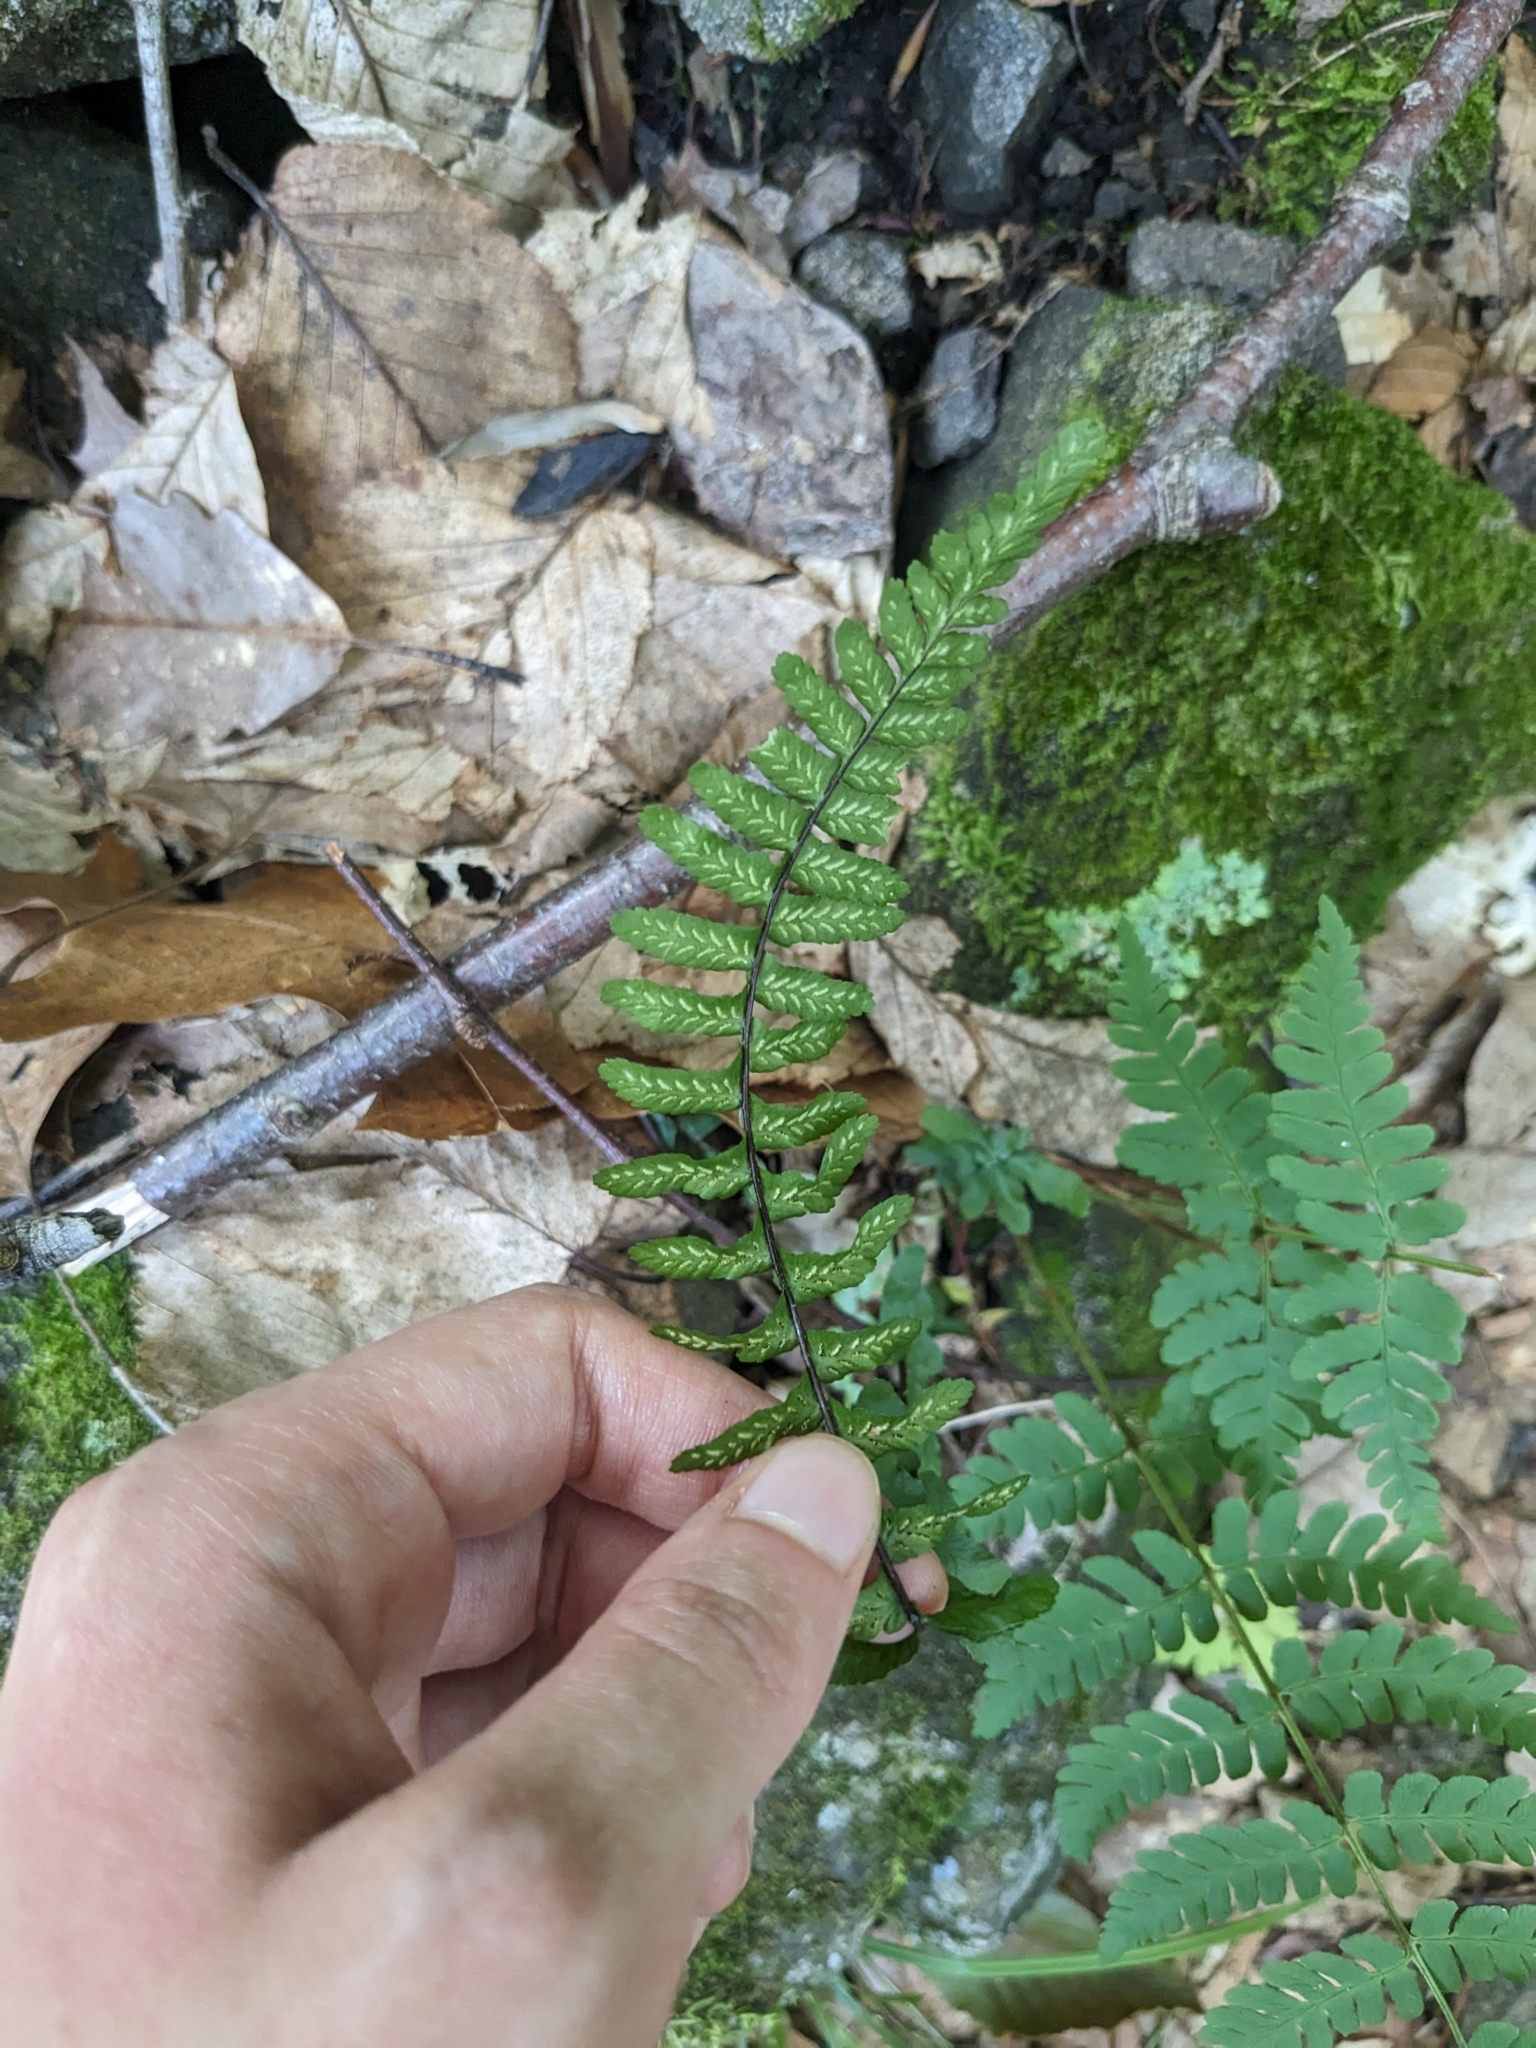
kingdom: Plantae
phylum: Tracheophyta
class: Polypodiopsida
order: Polypodiales
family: Aspleniaceae
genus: Asplenium
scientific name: Asplenium platyneuron
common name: Ebony spleenwort
